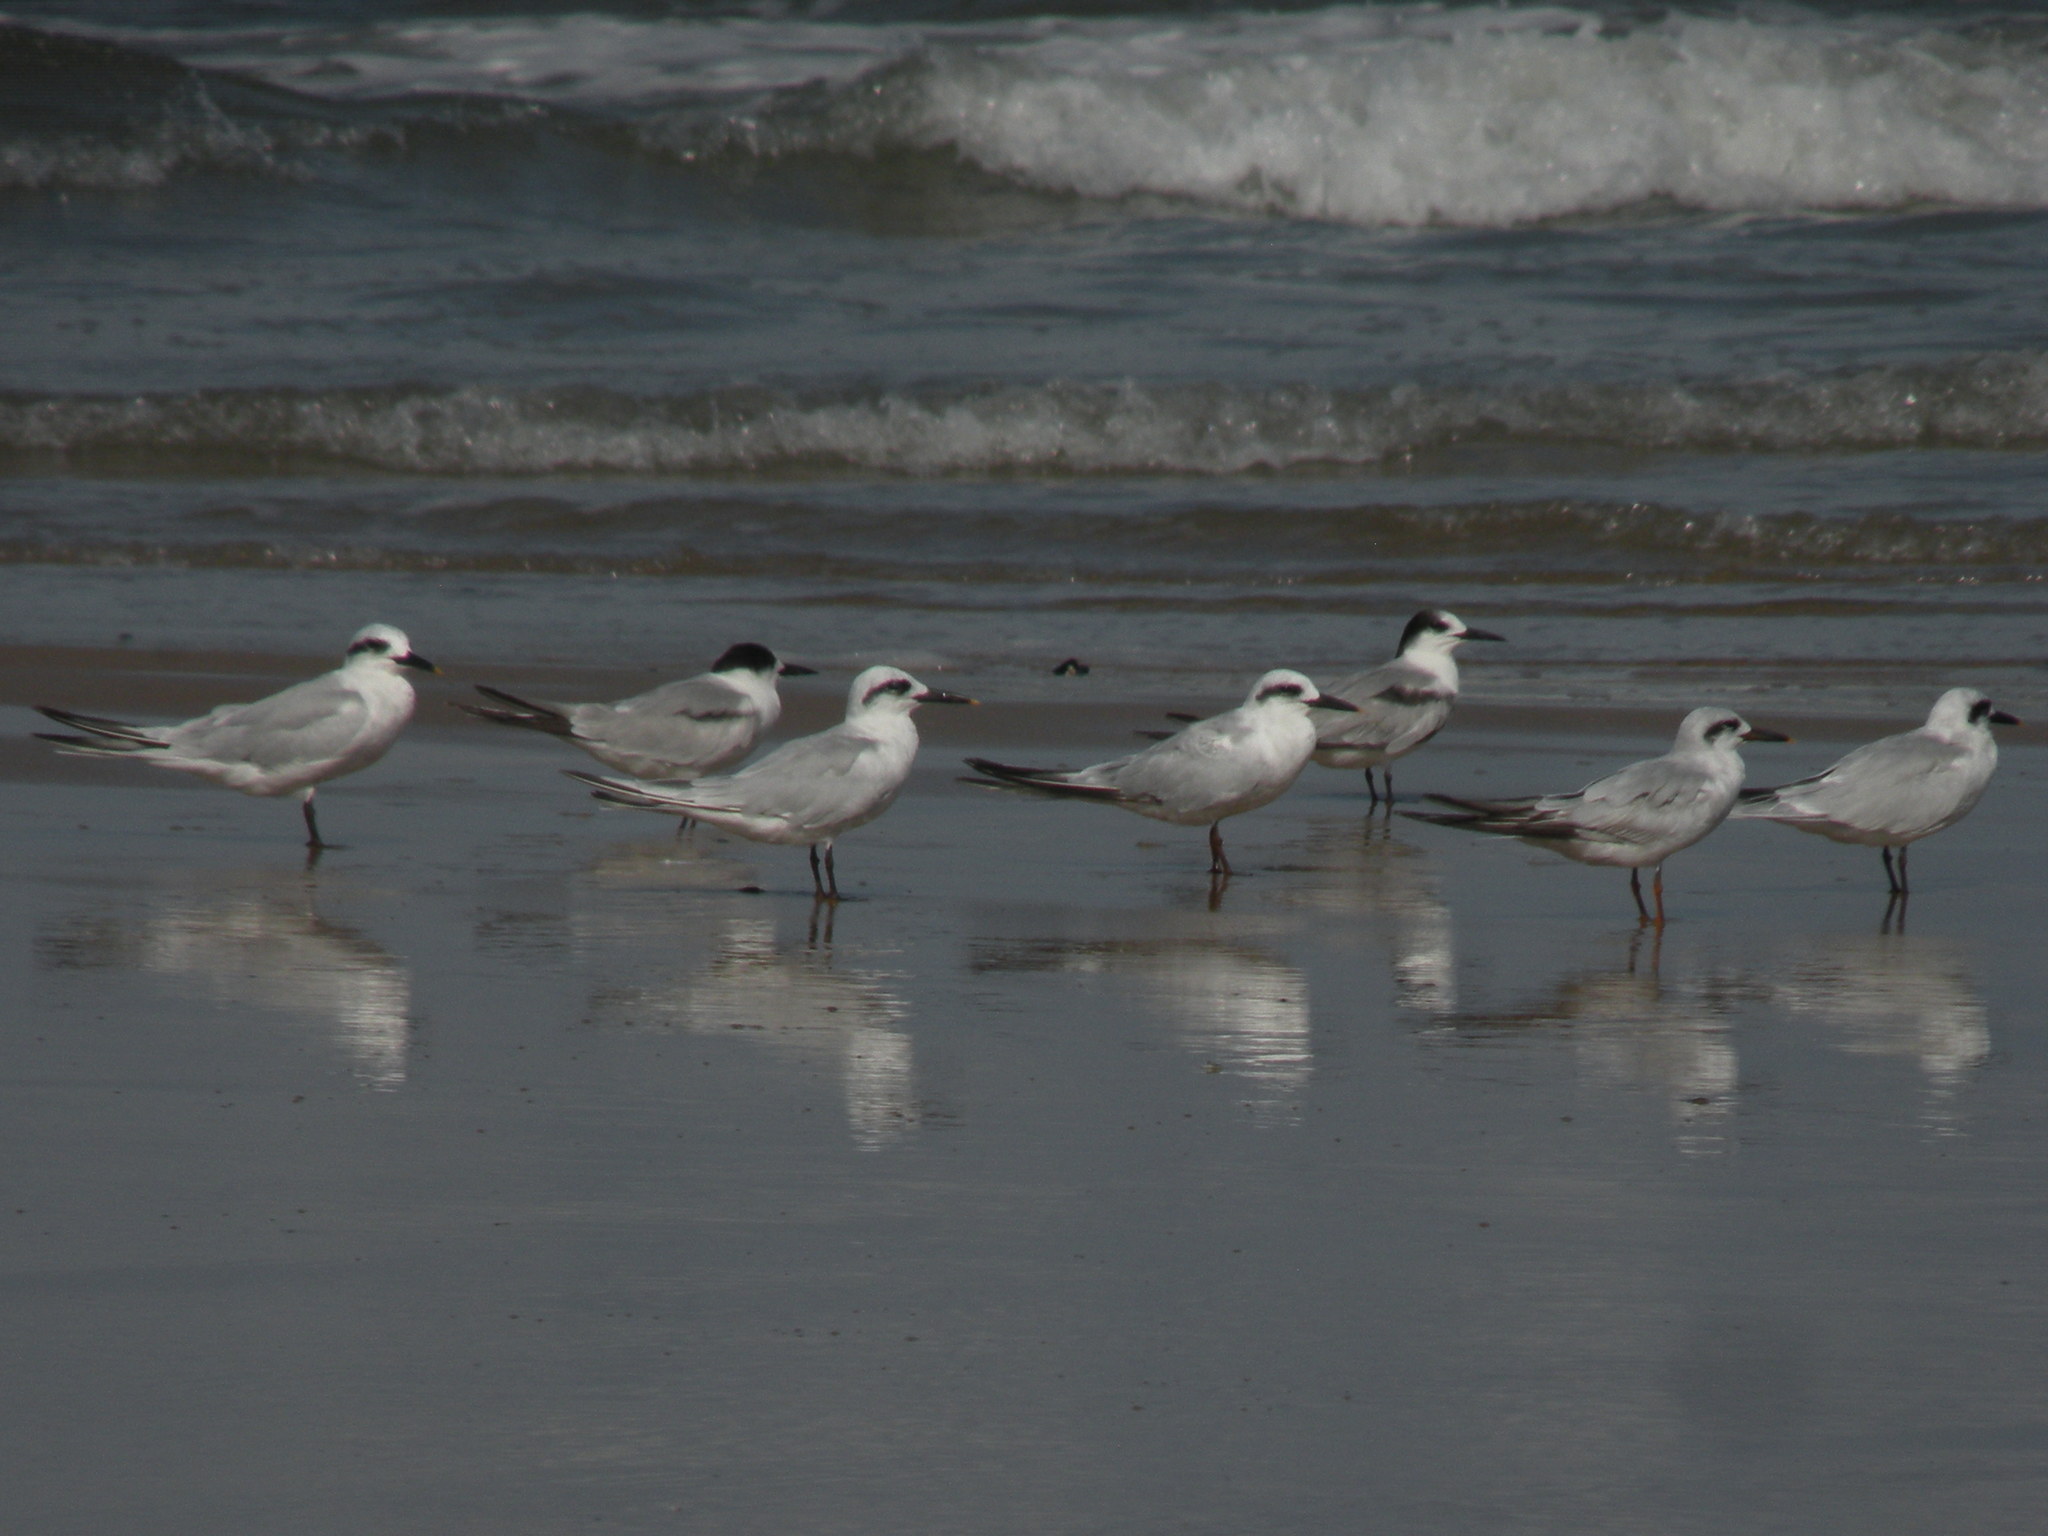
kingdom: Animalia
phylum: Chordata
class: Aves
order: Charadriiformes
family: Laridae
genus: Sterna
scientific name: Sterna trudeaui
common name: Snowy-crowned tern
